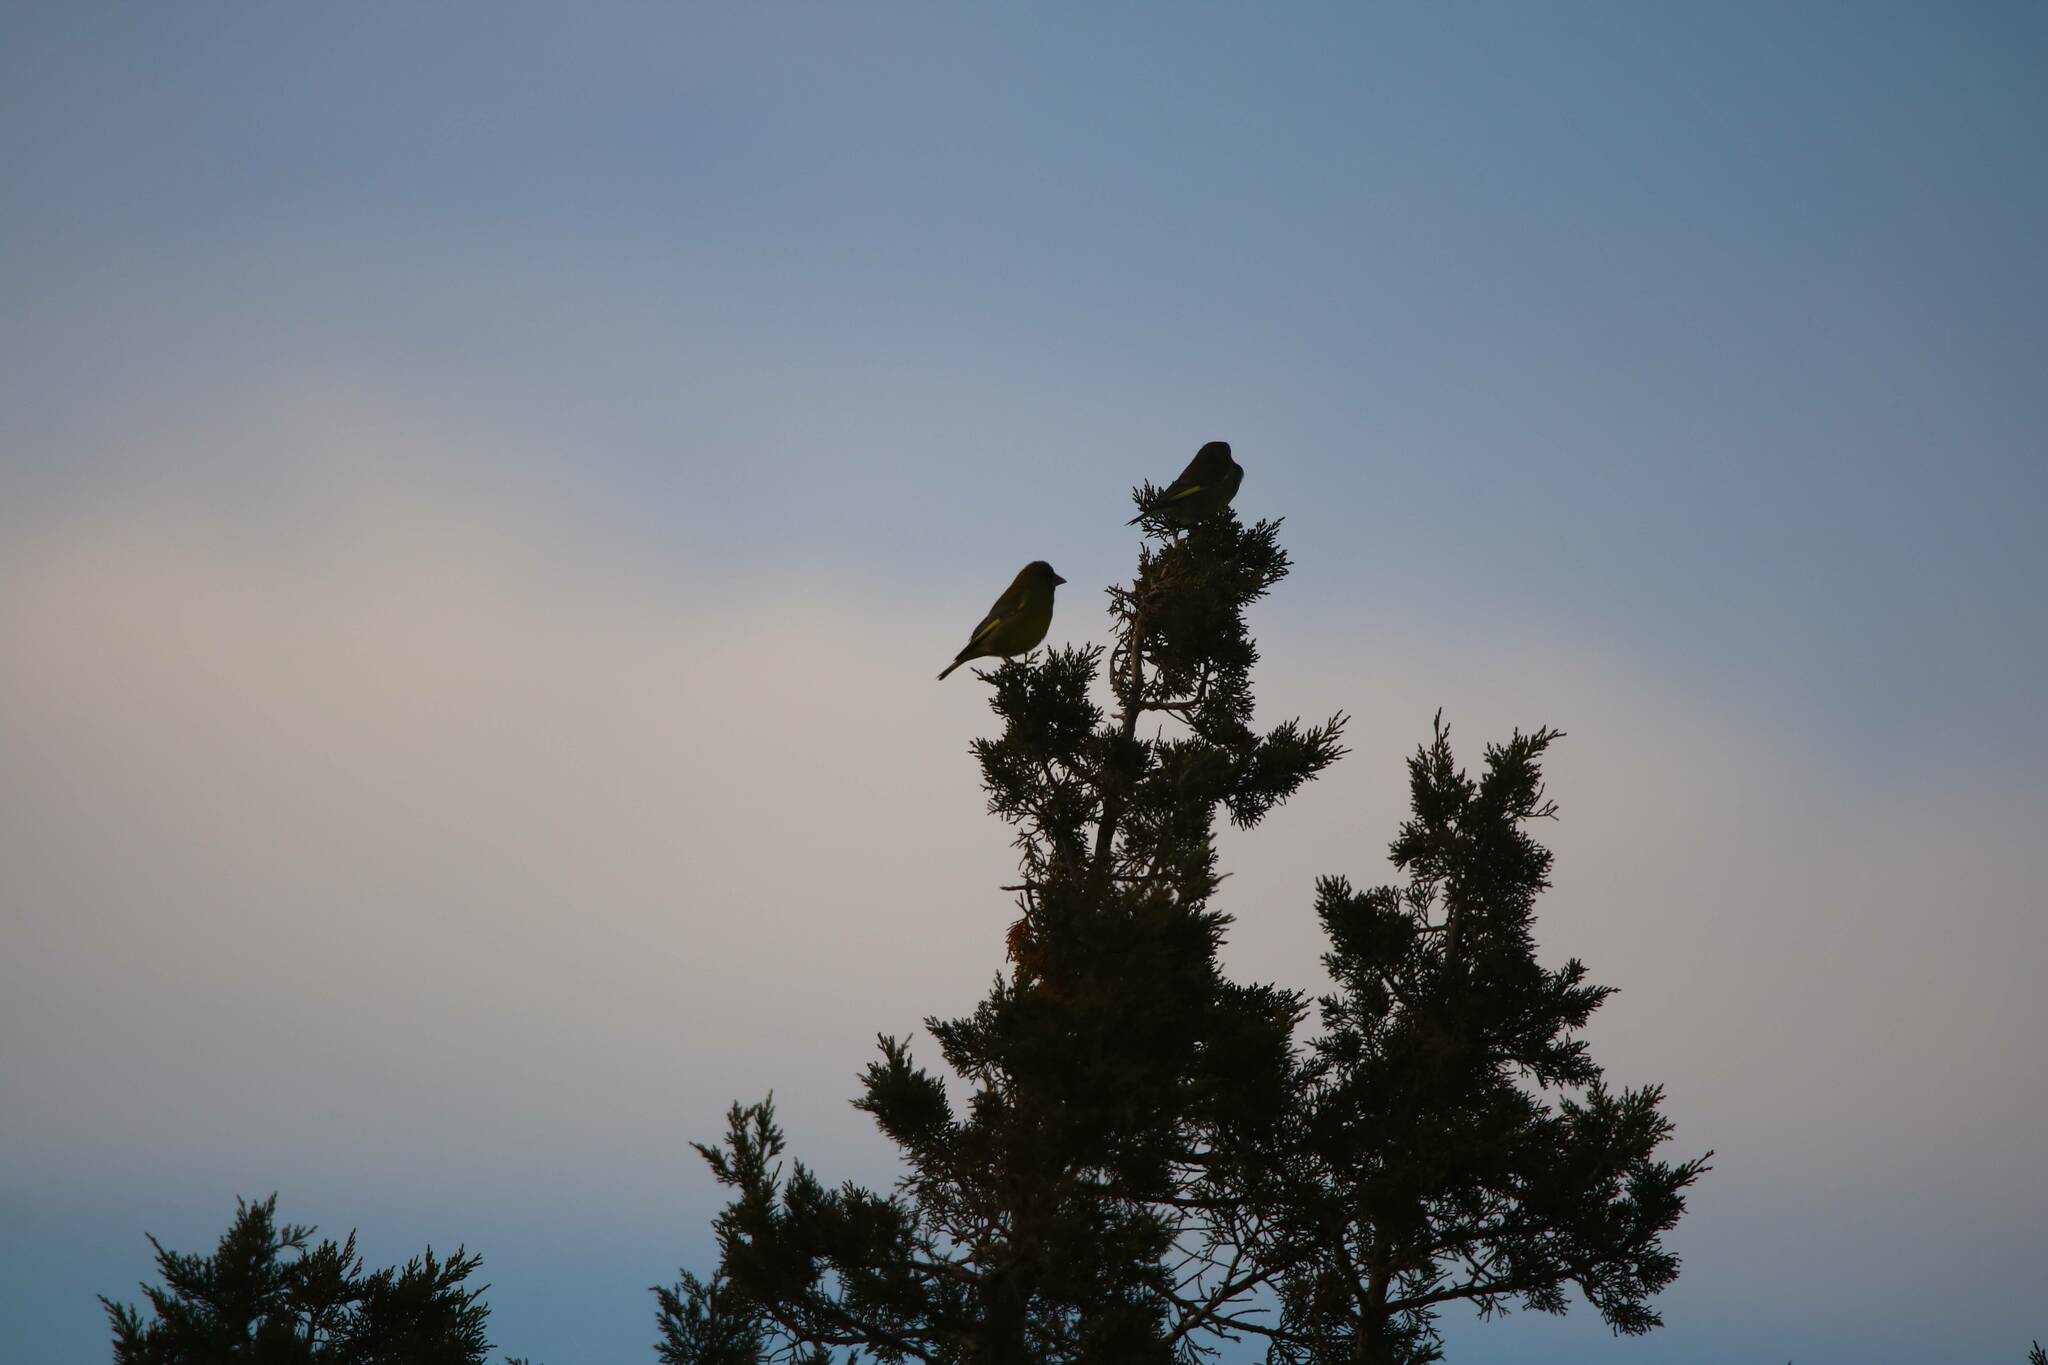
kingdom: Plantae
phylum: Tracheophyta
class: Liliopsida
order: Poales
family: Poaceae
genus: Chloris
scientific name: Chloris chloris
